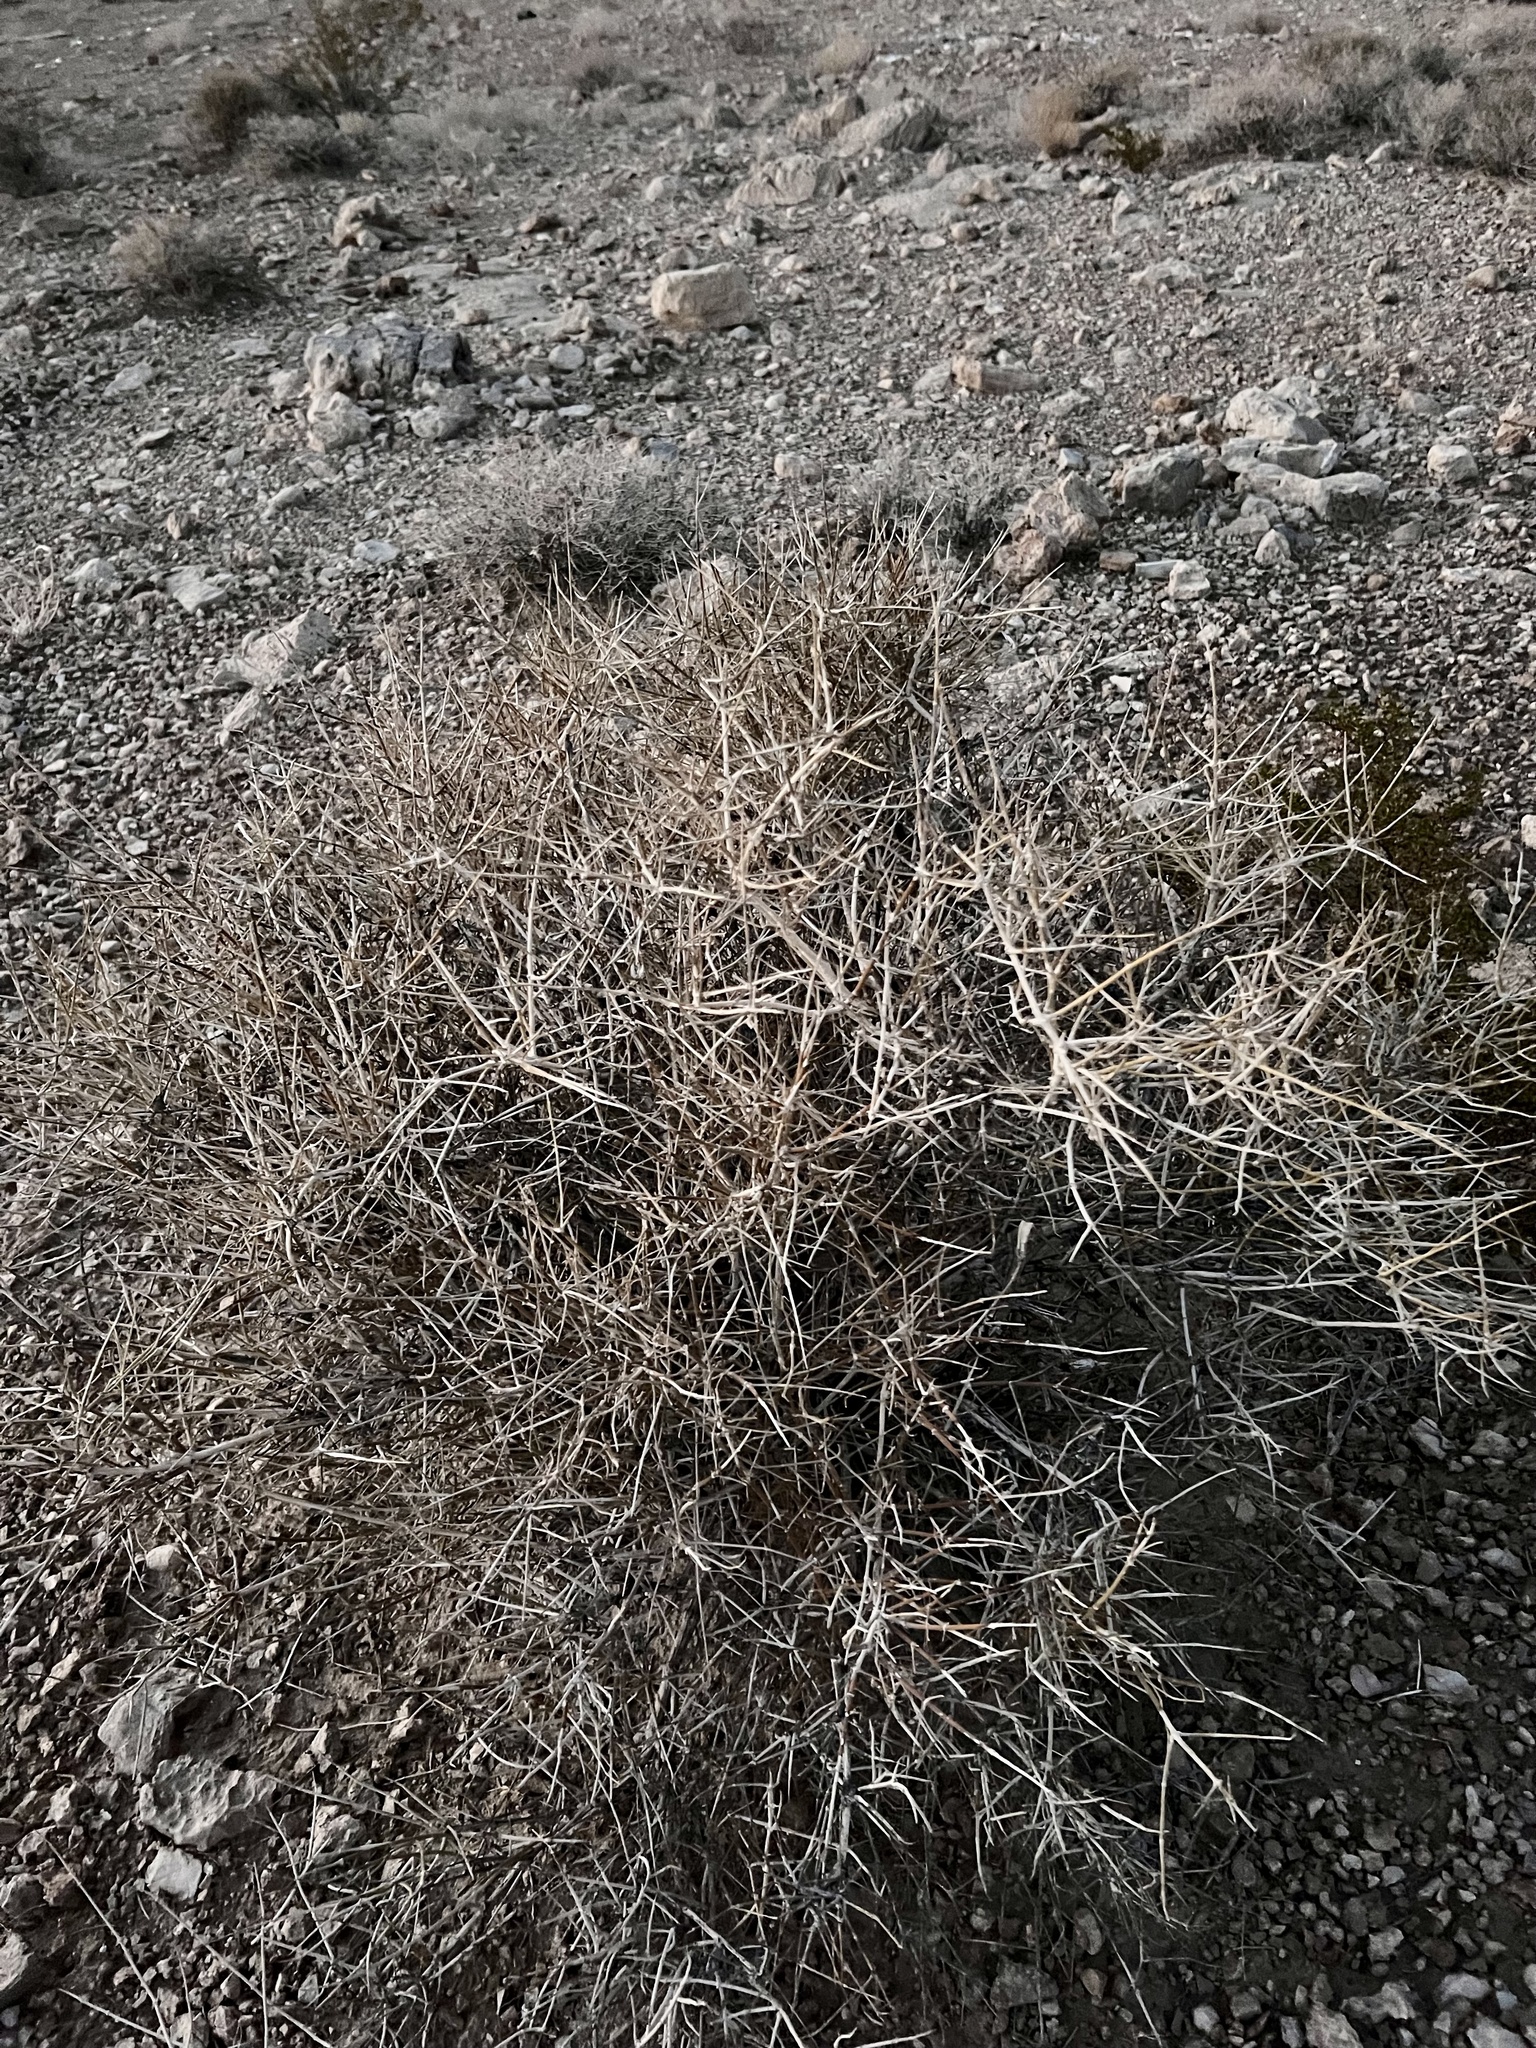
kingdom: Plantae
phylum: Tracheophyta
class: Gnetopsida
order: Ephedrales
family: Ephedraceae
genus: Ephedra
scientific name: Ephedra nevadensis
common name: Gray ephedra
